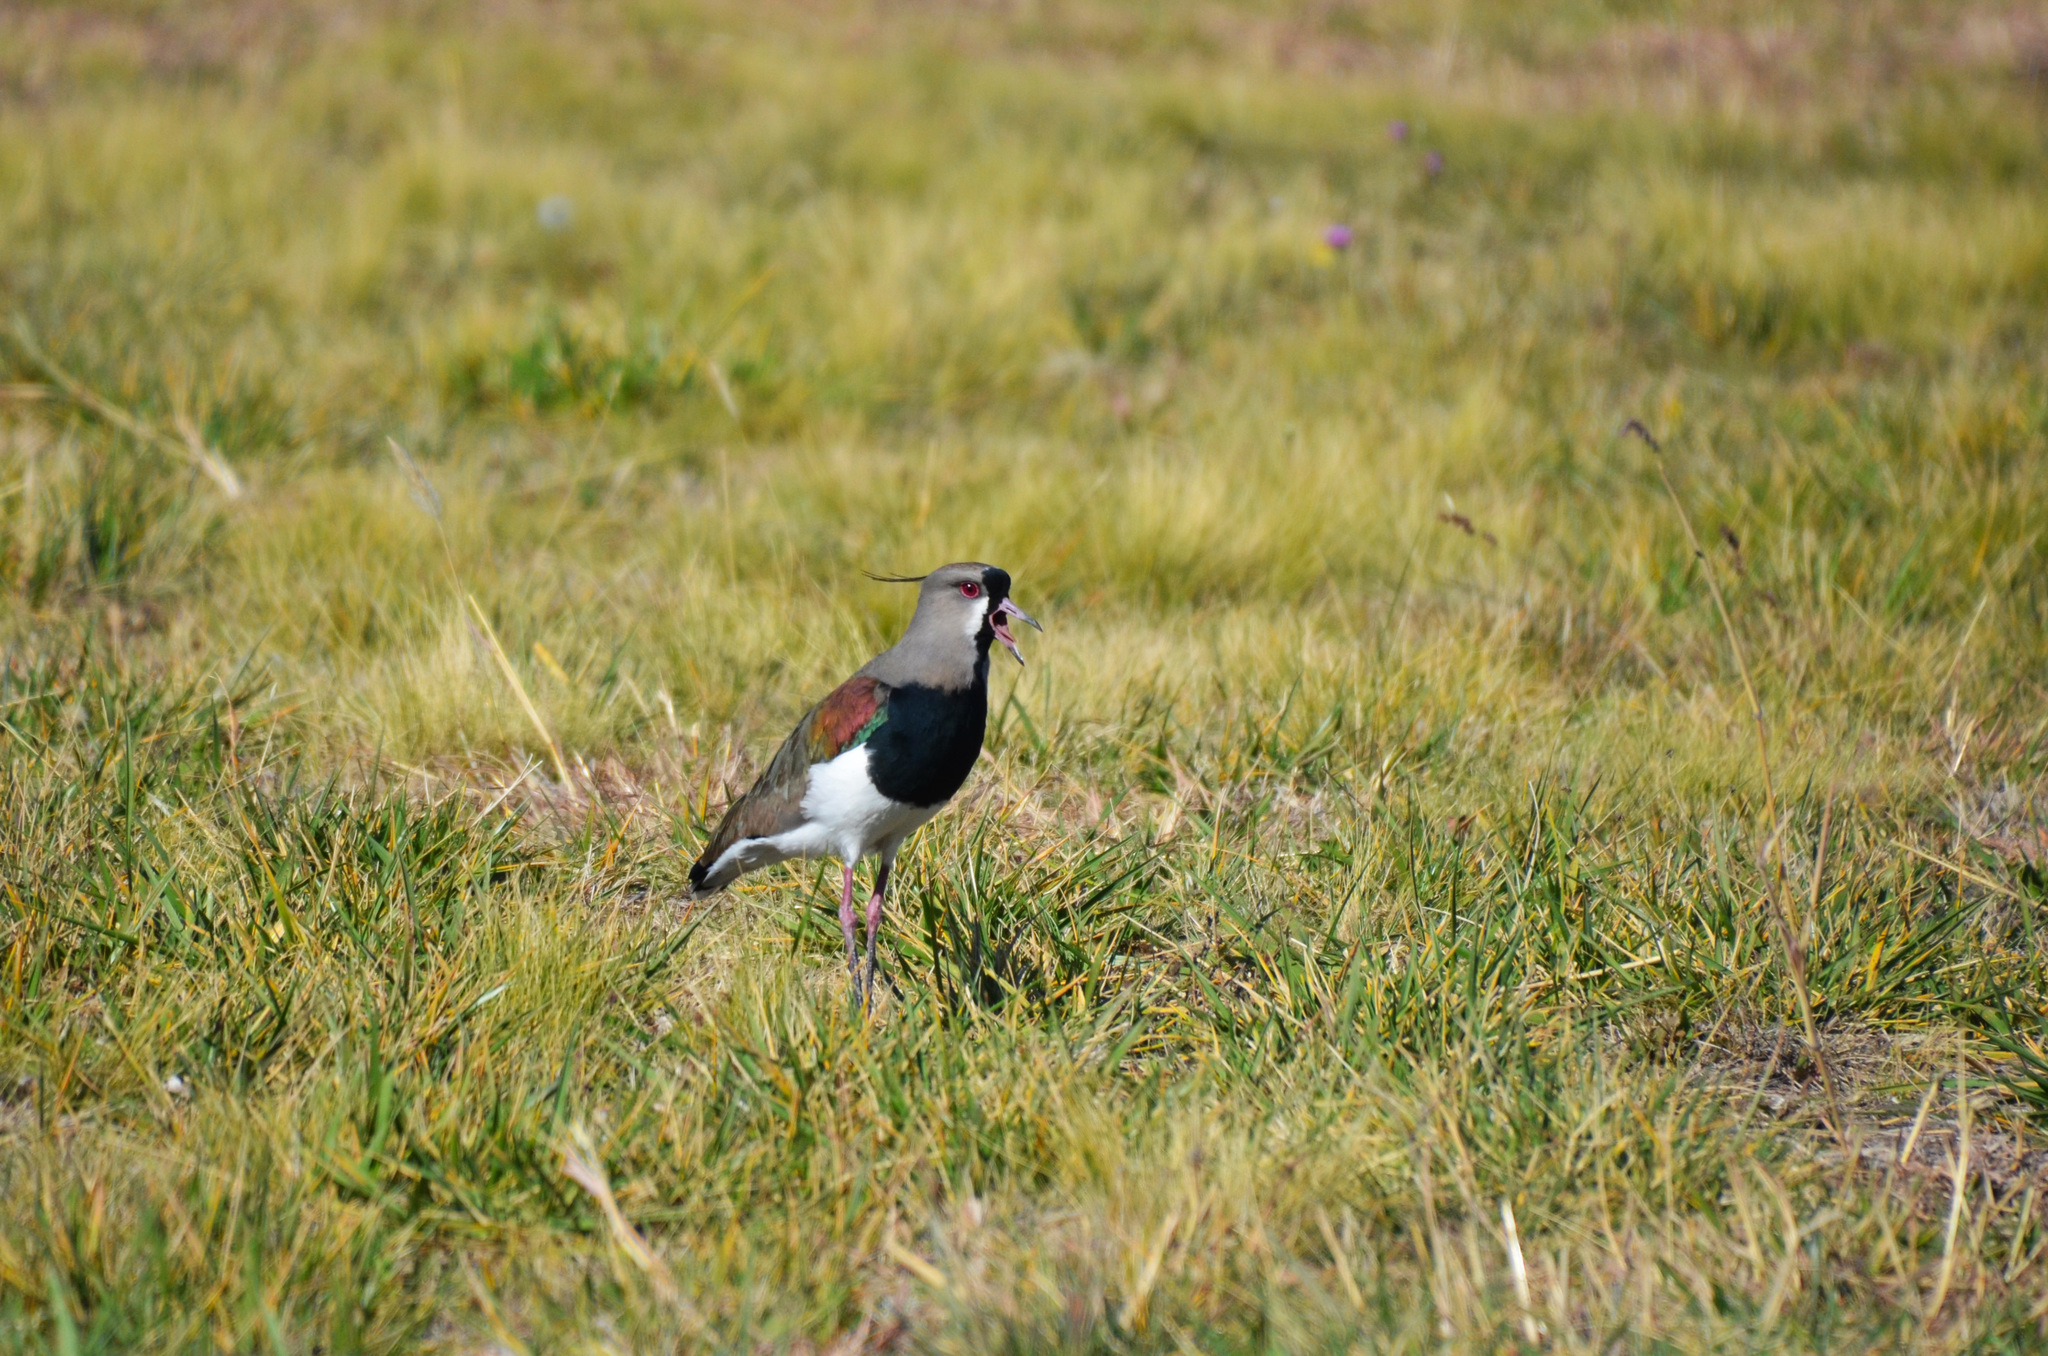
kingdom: Animalia
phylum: Chordata
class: Aves
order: Charadriiformes
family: Charadriidae
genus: Vanellus
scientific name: Vanellus chilensis
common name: Southern lapwing
